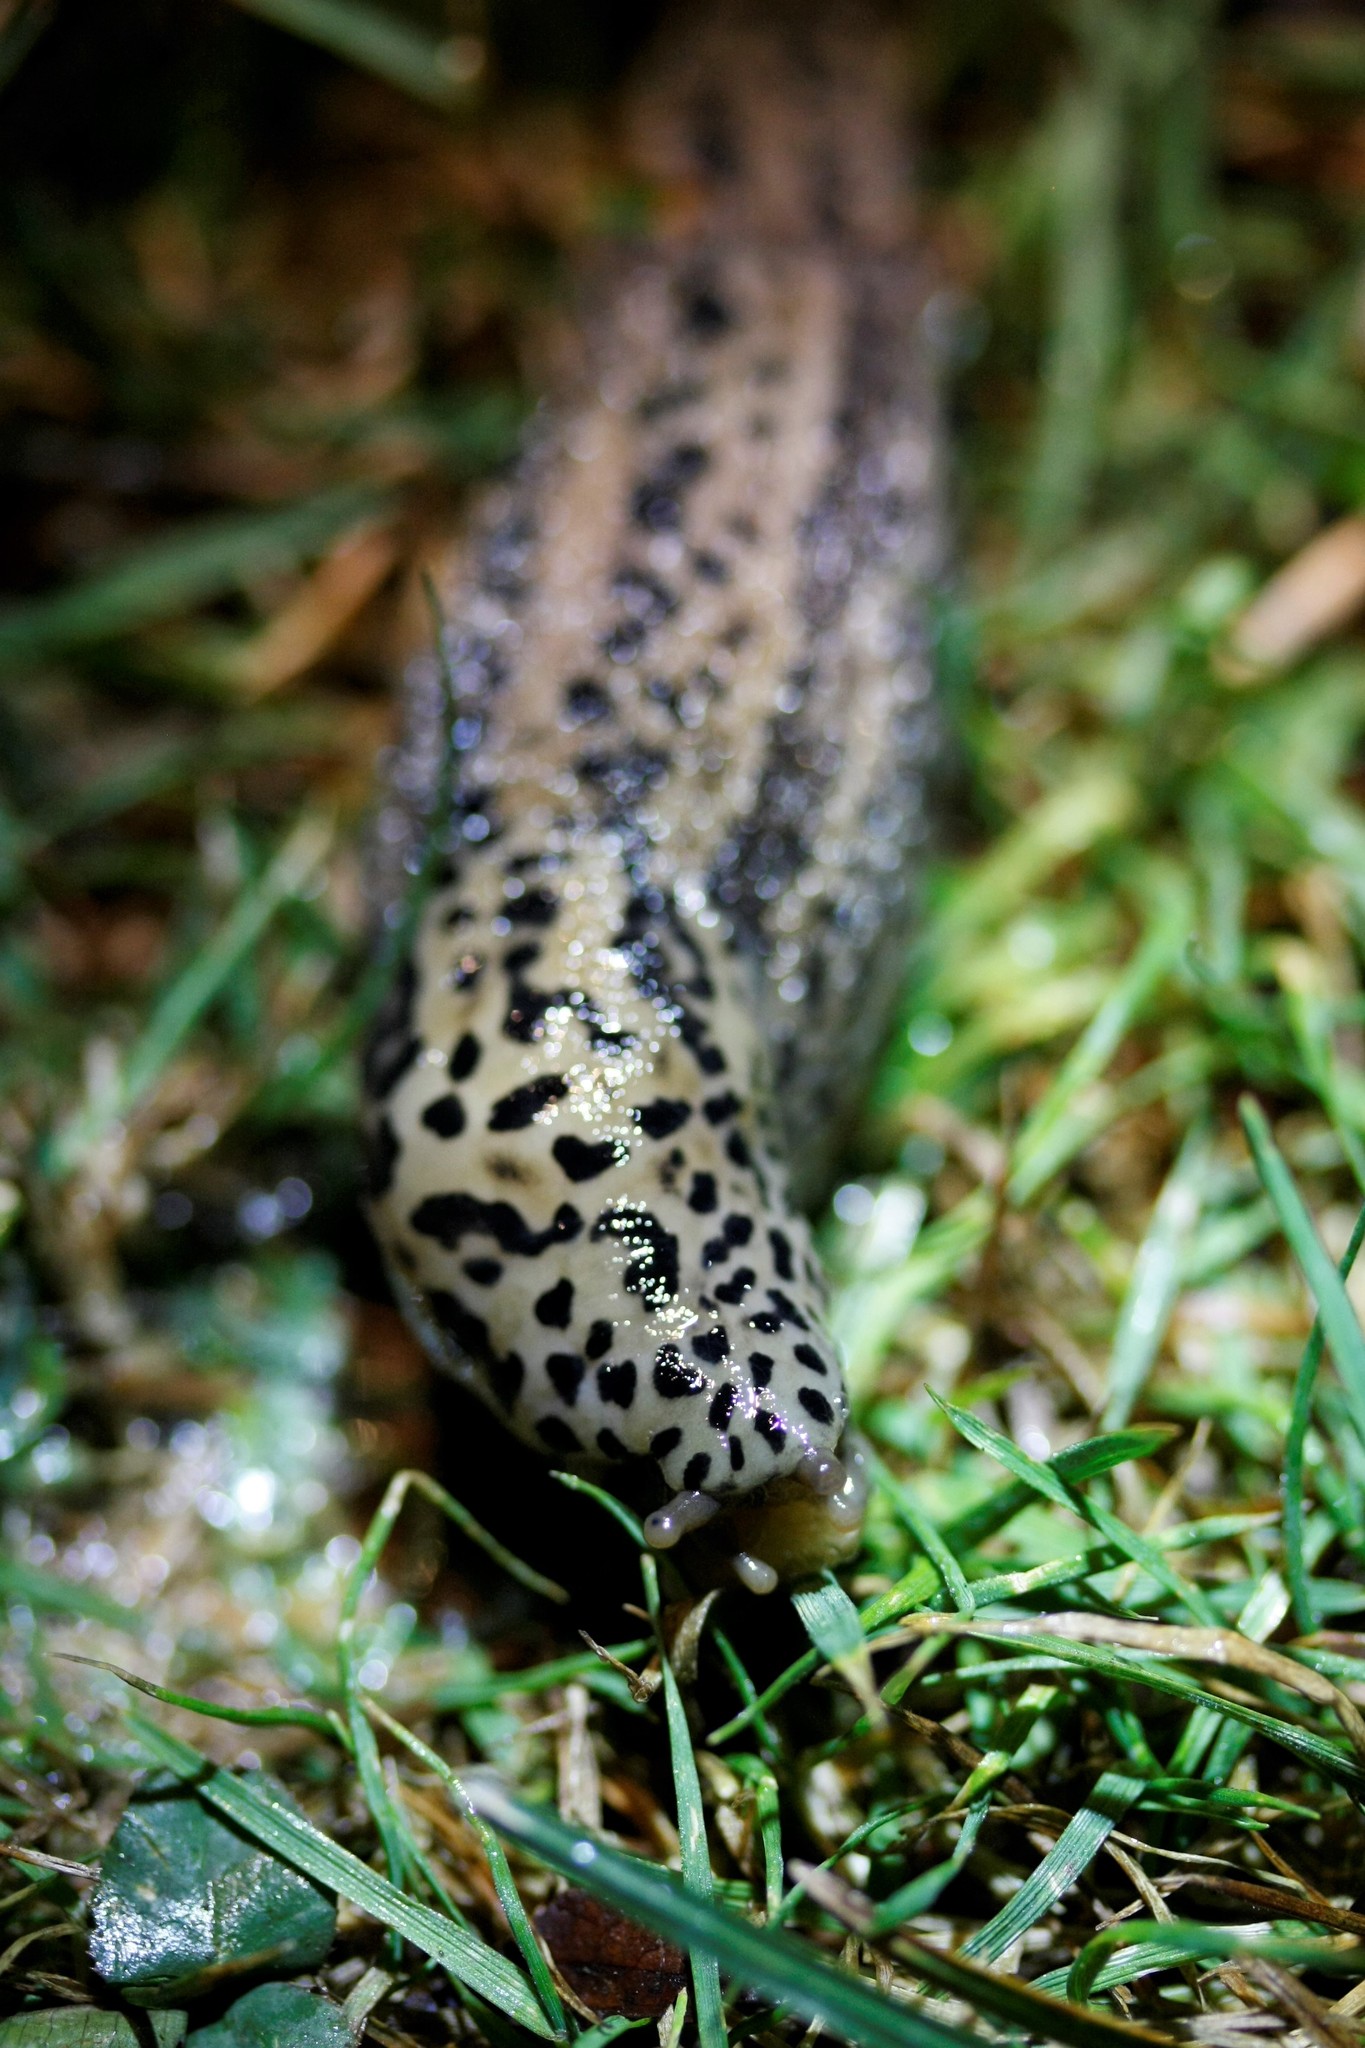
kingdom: Animalia
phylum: Mollusca
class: Gastropoda
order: Stylommatophora
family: Limacidae
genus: Limax
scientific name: Limax maximus
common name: Great grey slug
